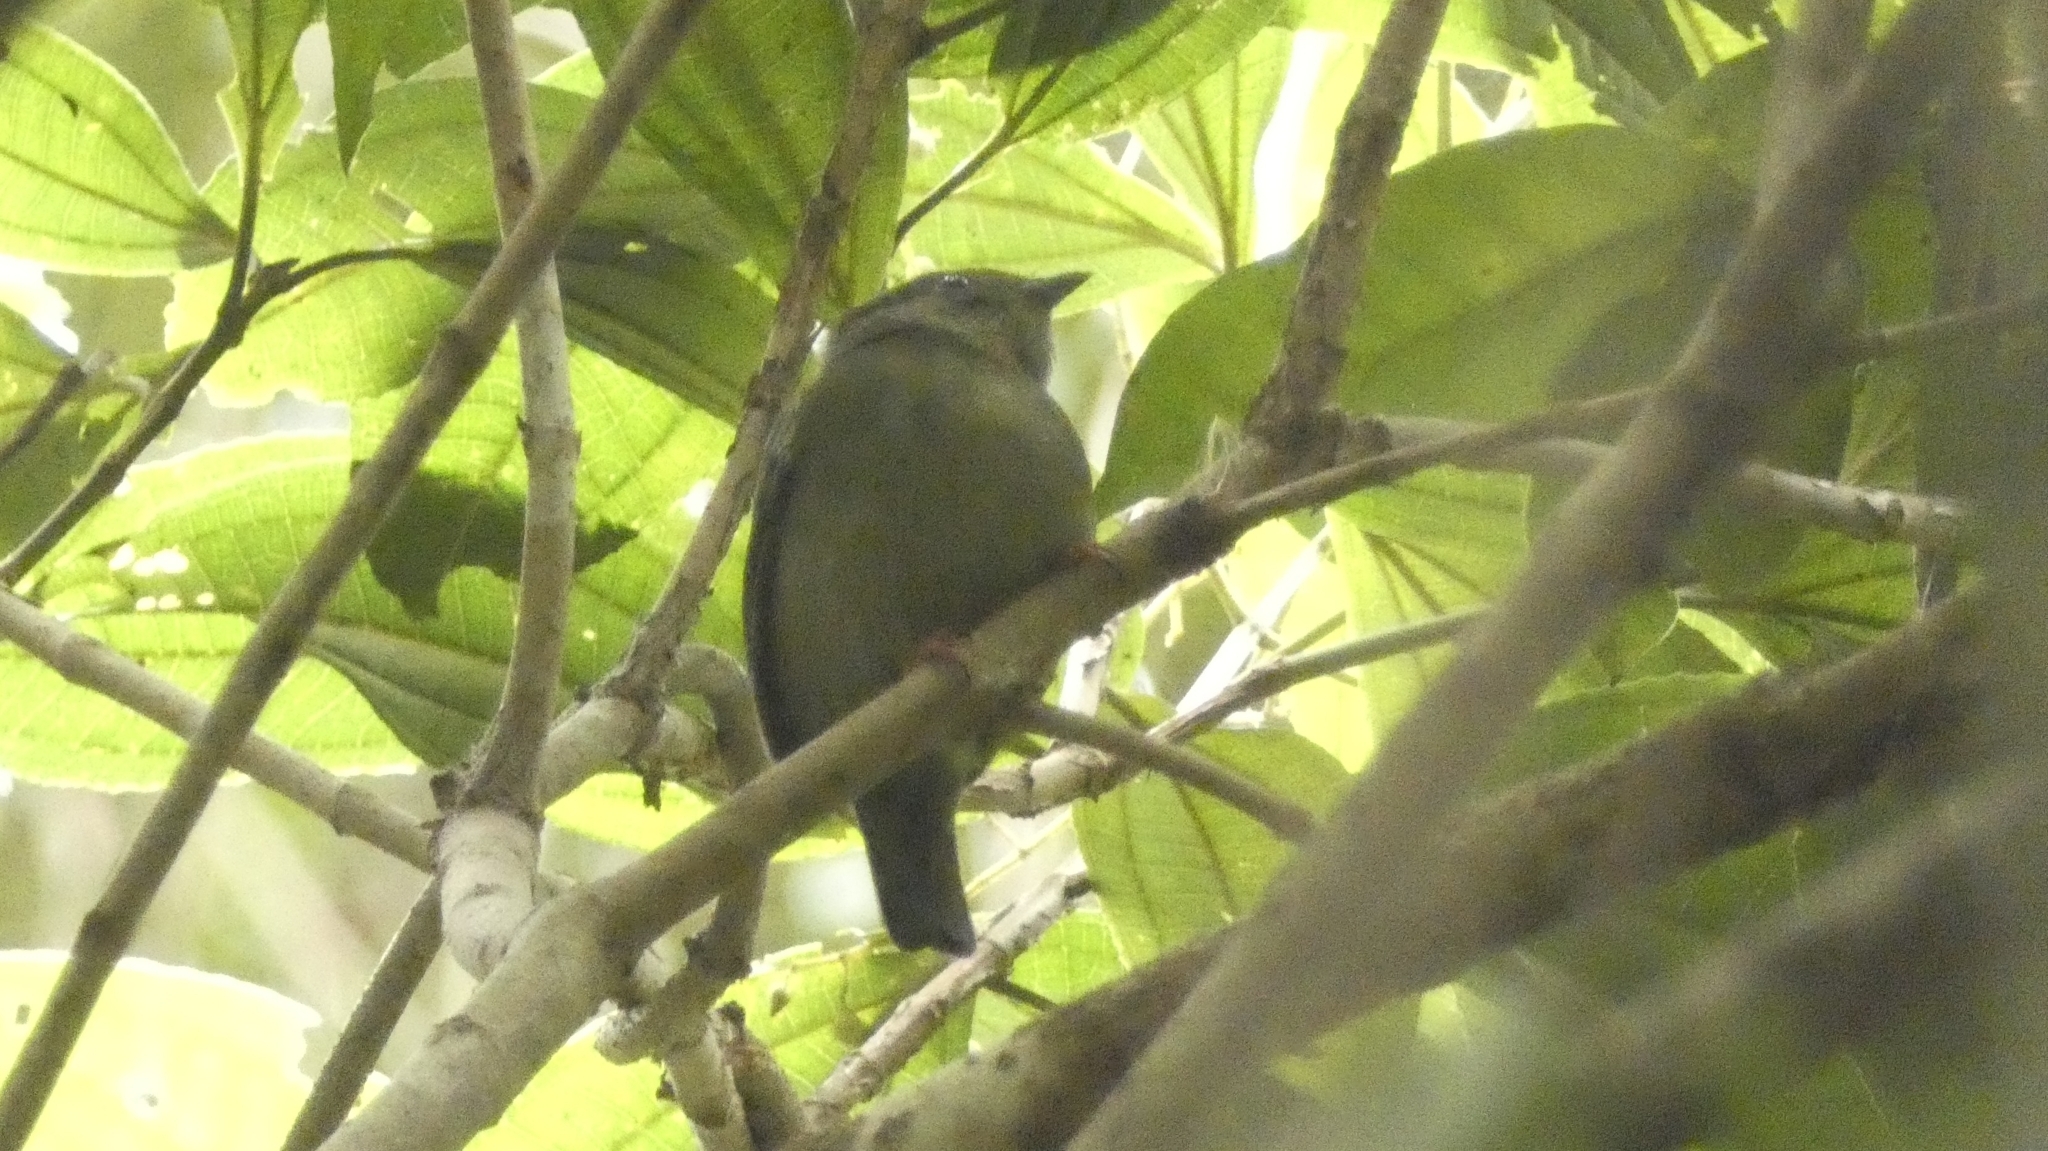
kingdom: Animalia
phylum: Chordata
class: Aves
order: Passeriformes
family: Pipridae
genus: Manacus
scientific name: Manacus manacus
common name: White-bearded manakin
